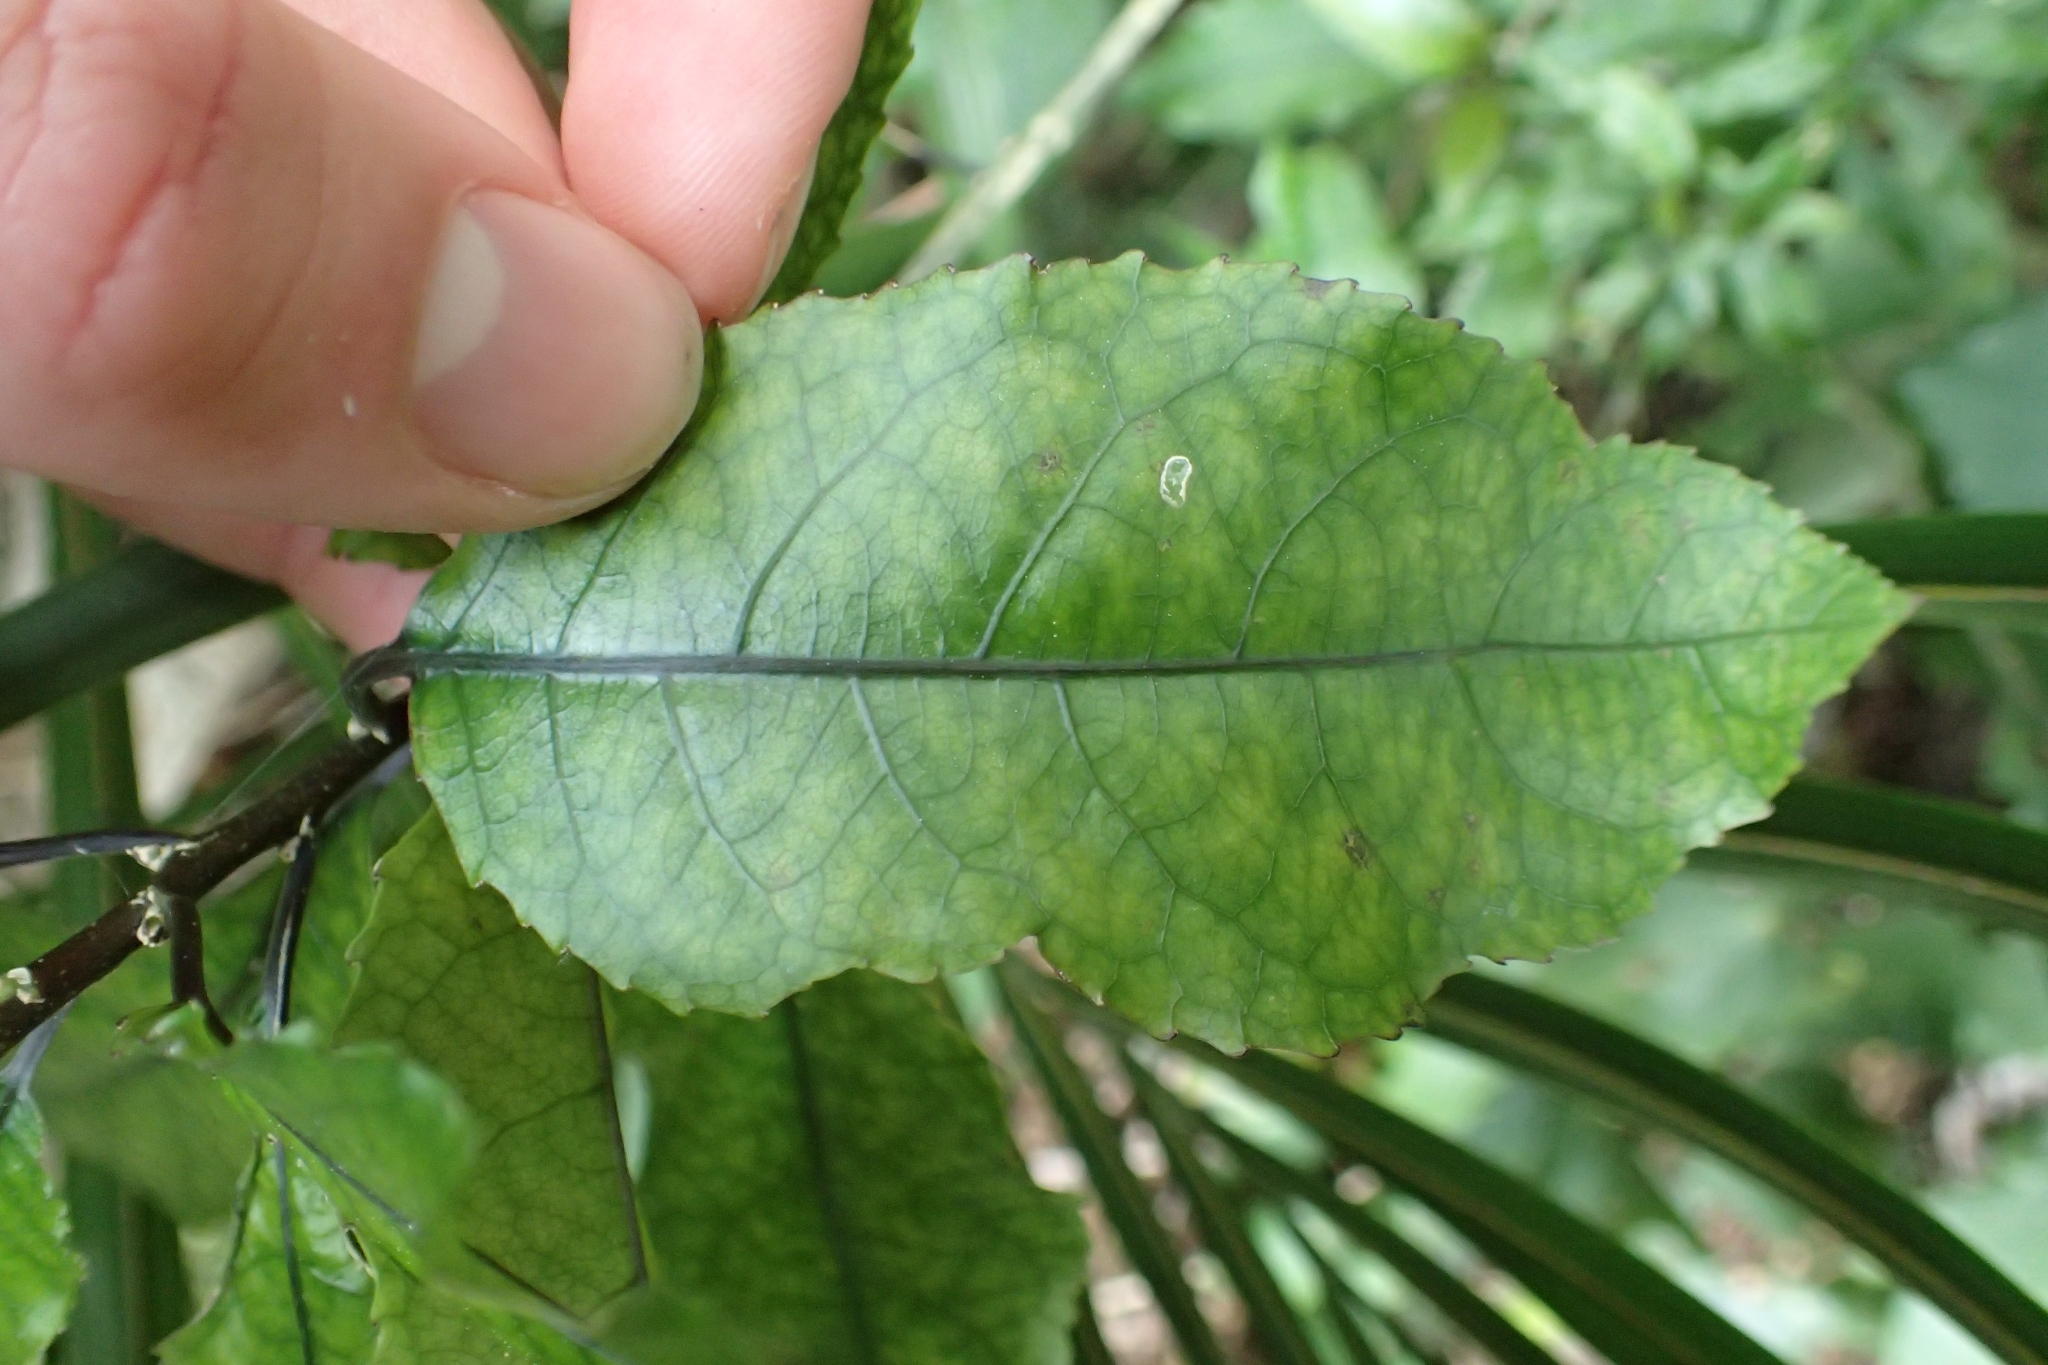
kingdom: Plantae
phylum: Tracheophyta
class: Magnoliopsida
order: Malpighiales
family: Violaceae
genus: Melicytus
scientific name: Melicytus ramiflorus
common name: Mahoe
